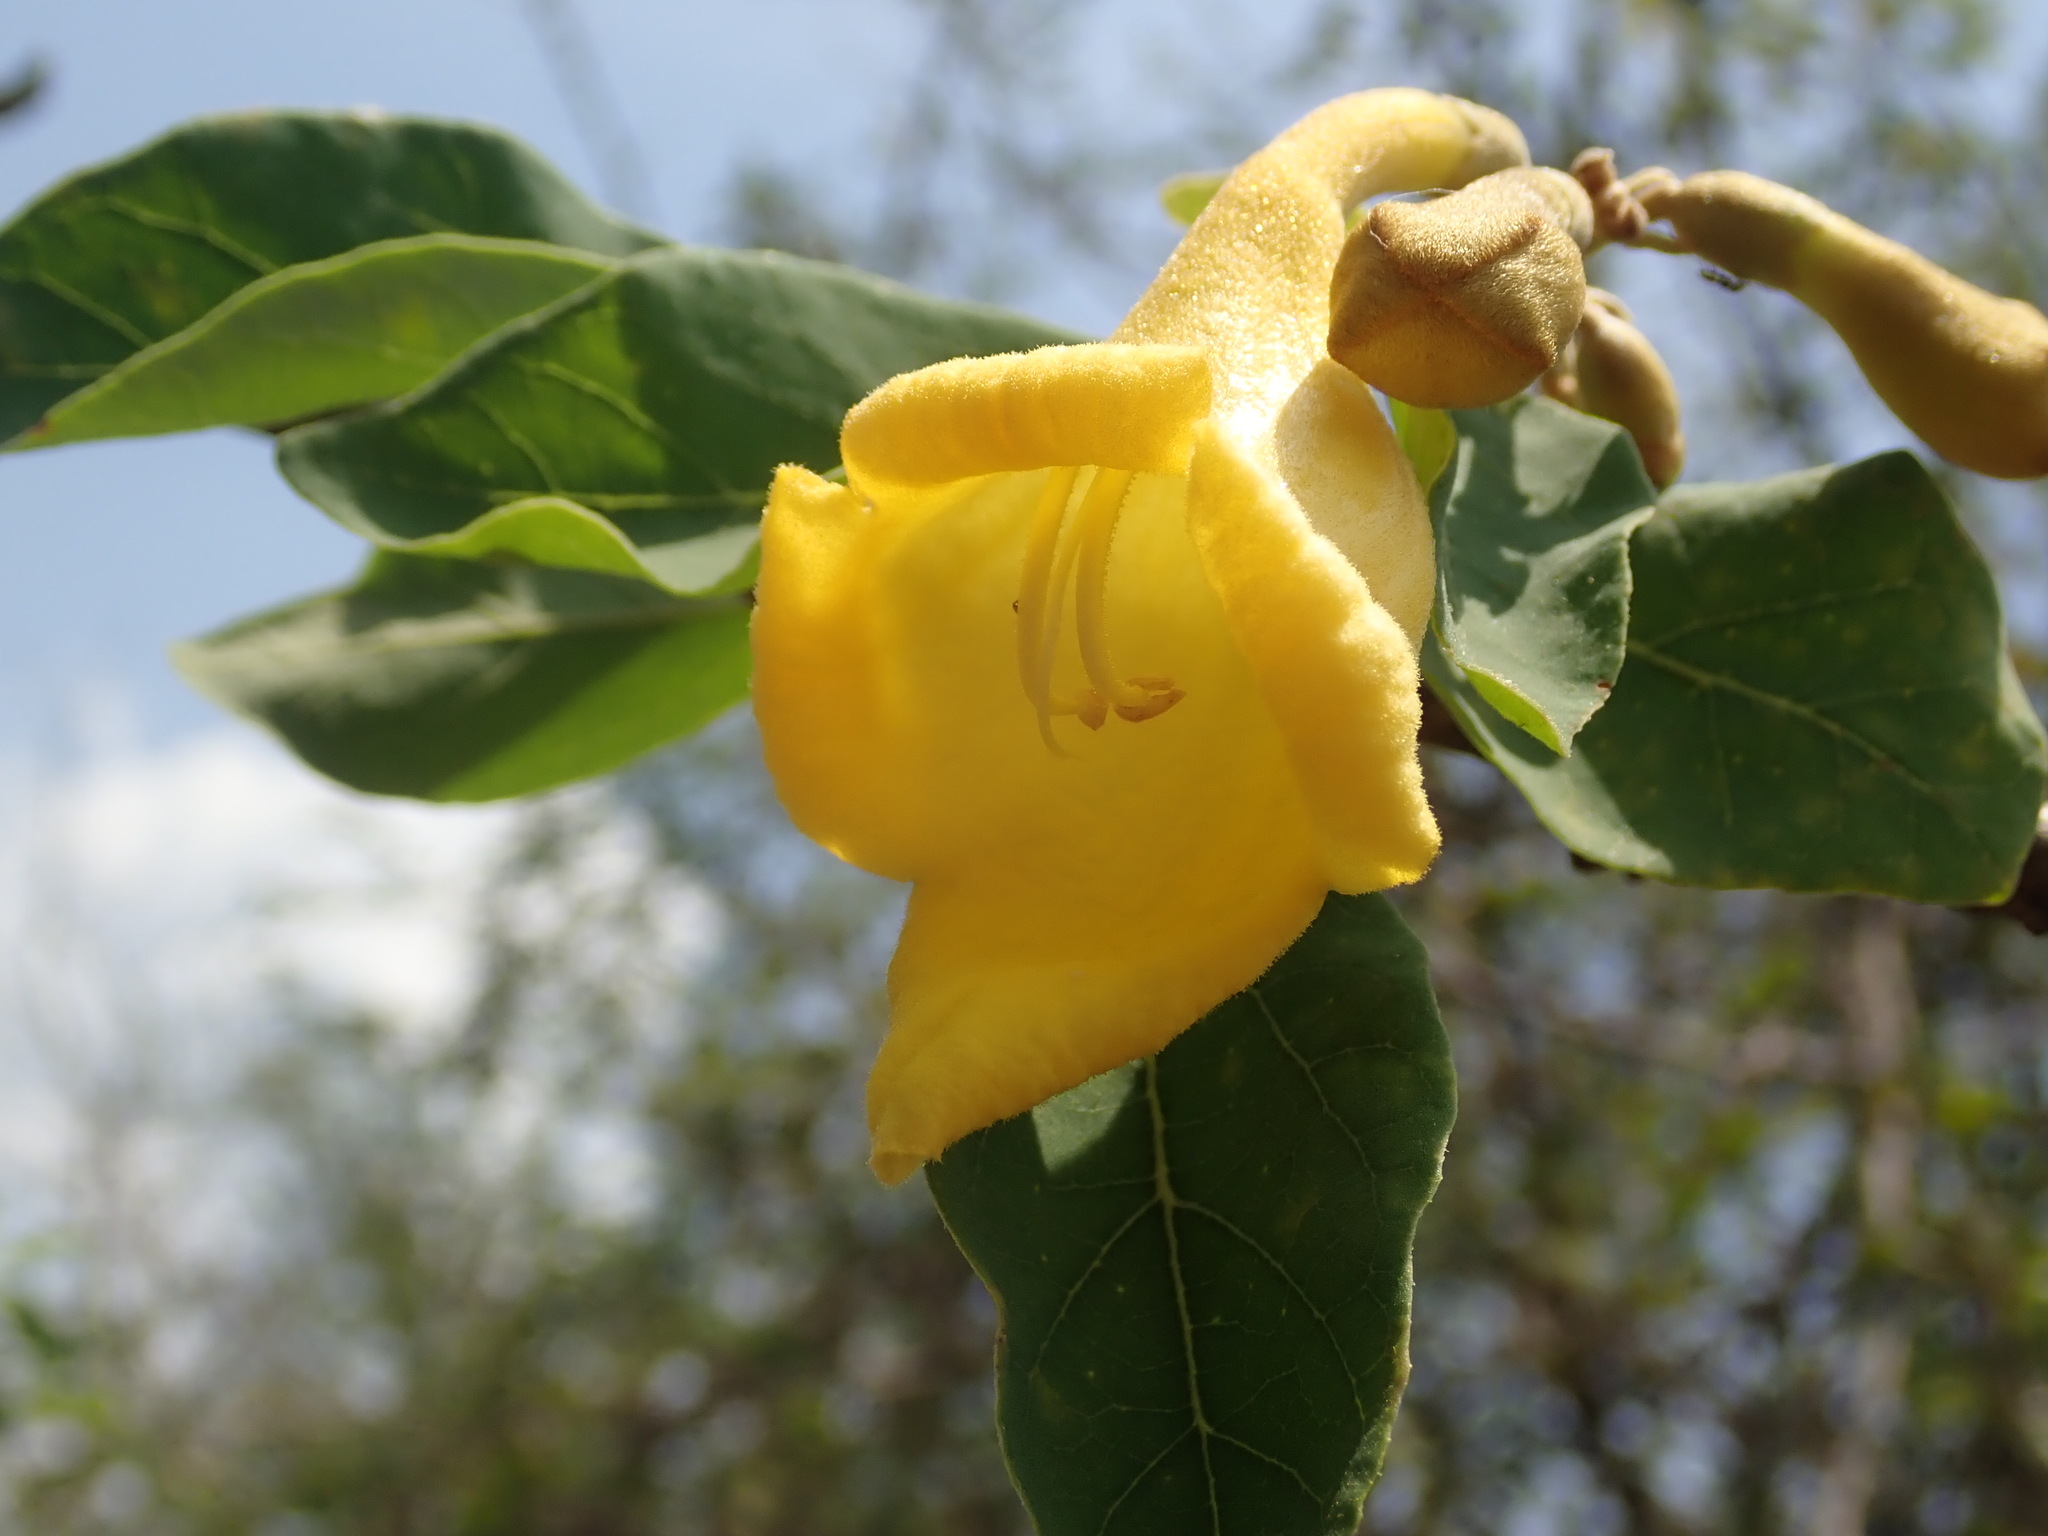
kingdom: Plantae
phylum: Tracheophyta
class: Magnoliopsida
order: Lamiales
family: Lamiaceae
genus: Gmelina
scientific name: Gmelina asiatica
